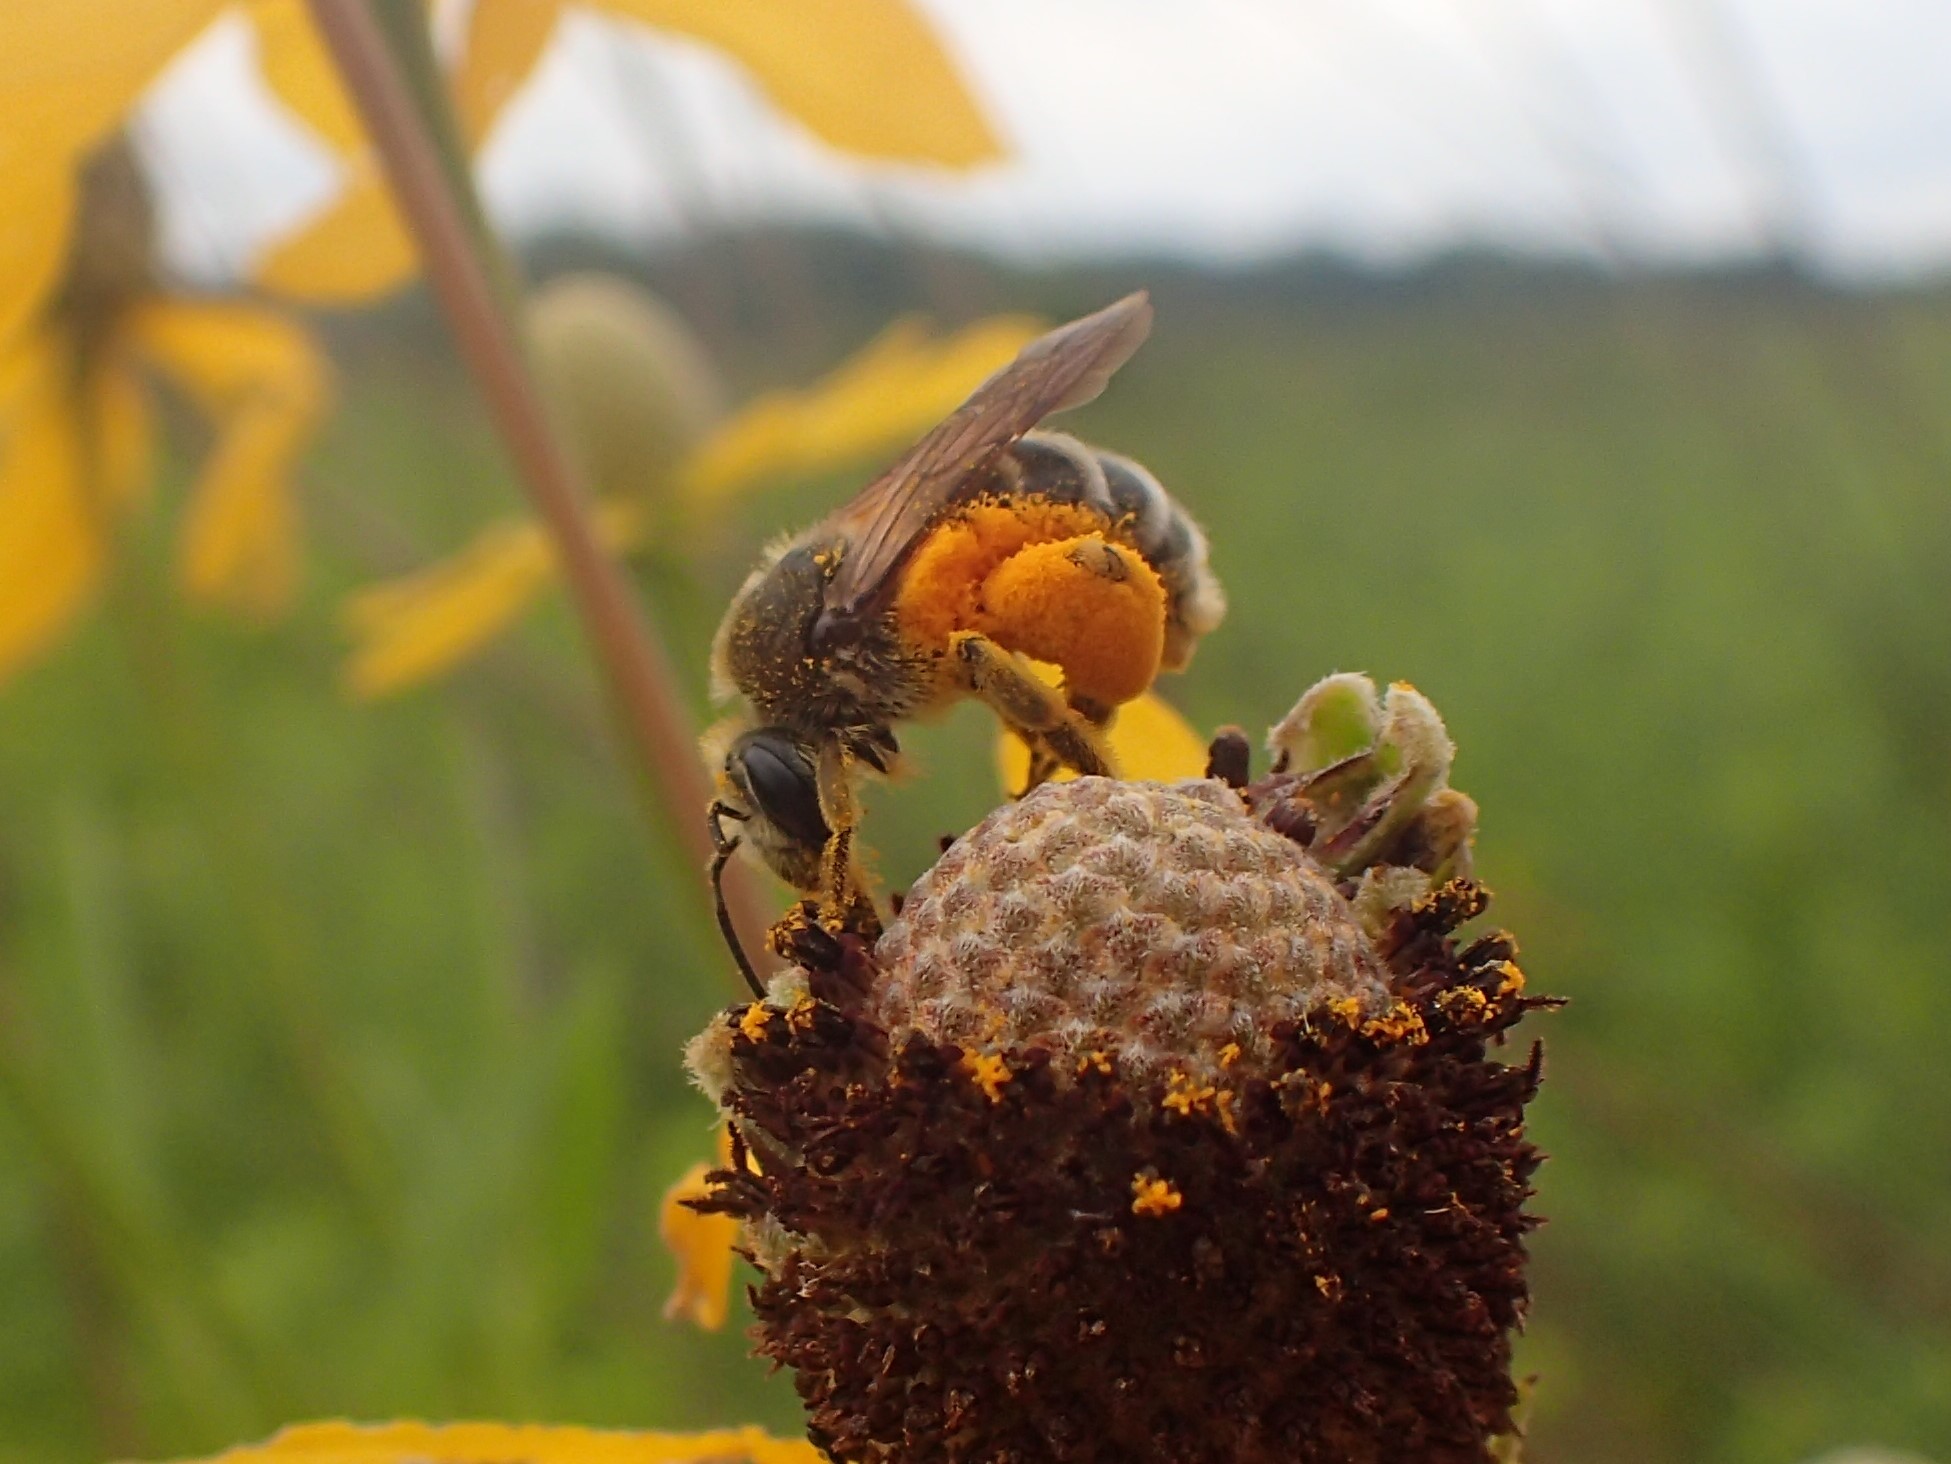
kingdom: Animalia
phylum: Arthropoda
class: Insecta
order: Hymenoptera
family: Andrenidae
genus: Andrena
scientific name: Andrena rudbeckiae
